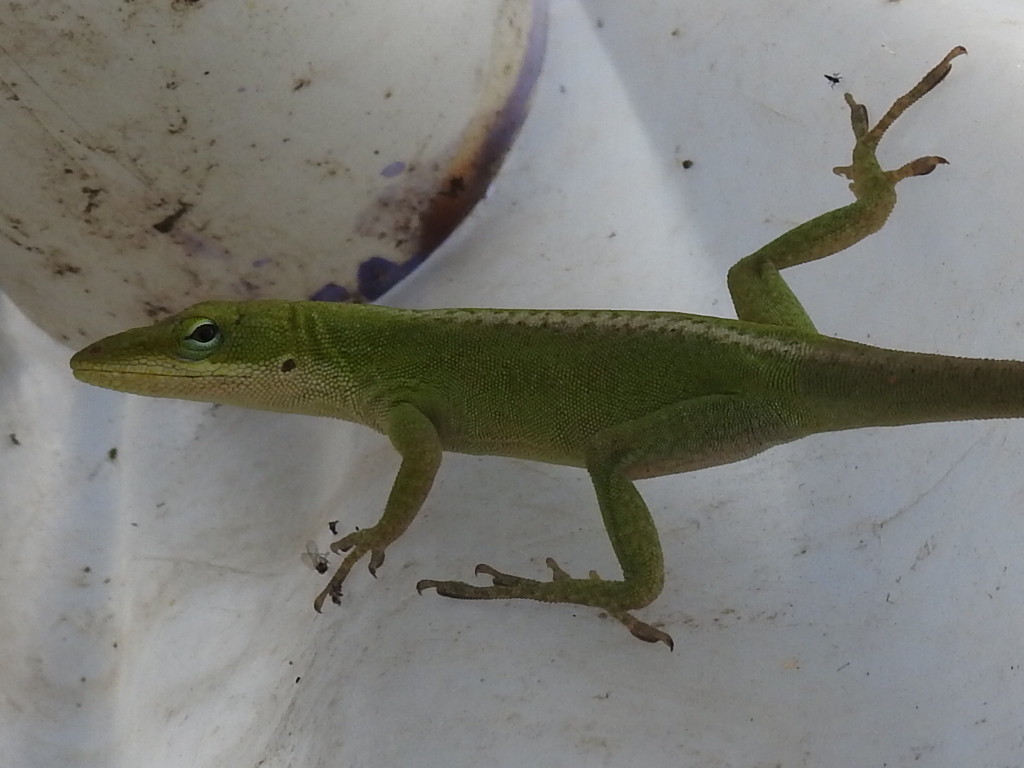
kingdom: Animalia
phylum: Chordata
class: Squamata
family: Dactyloidae
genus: Anolis
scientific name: Anolis carolinensis
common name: Green anole
